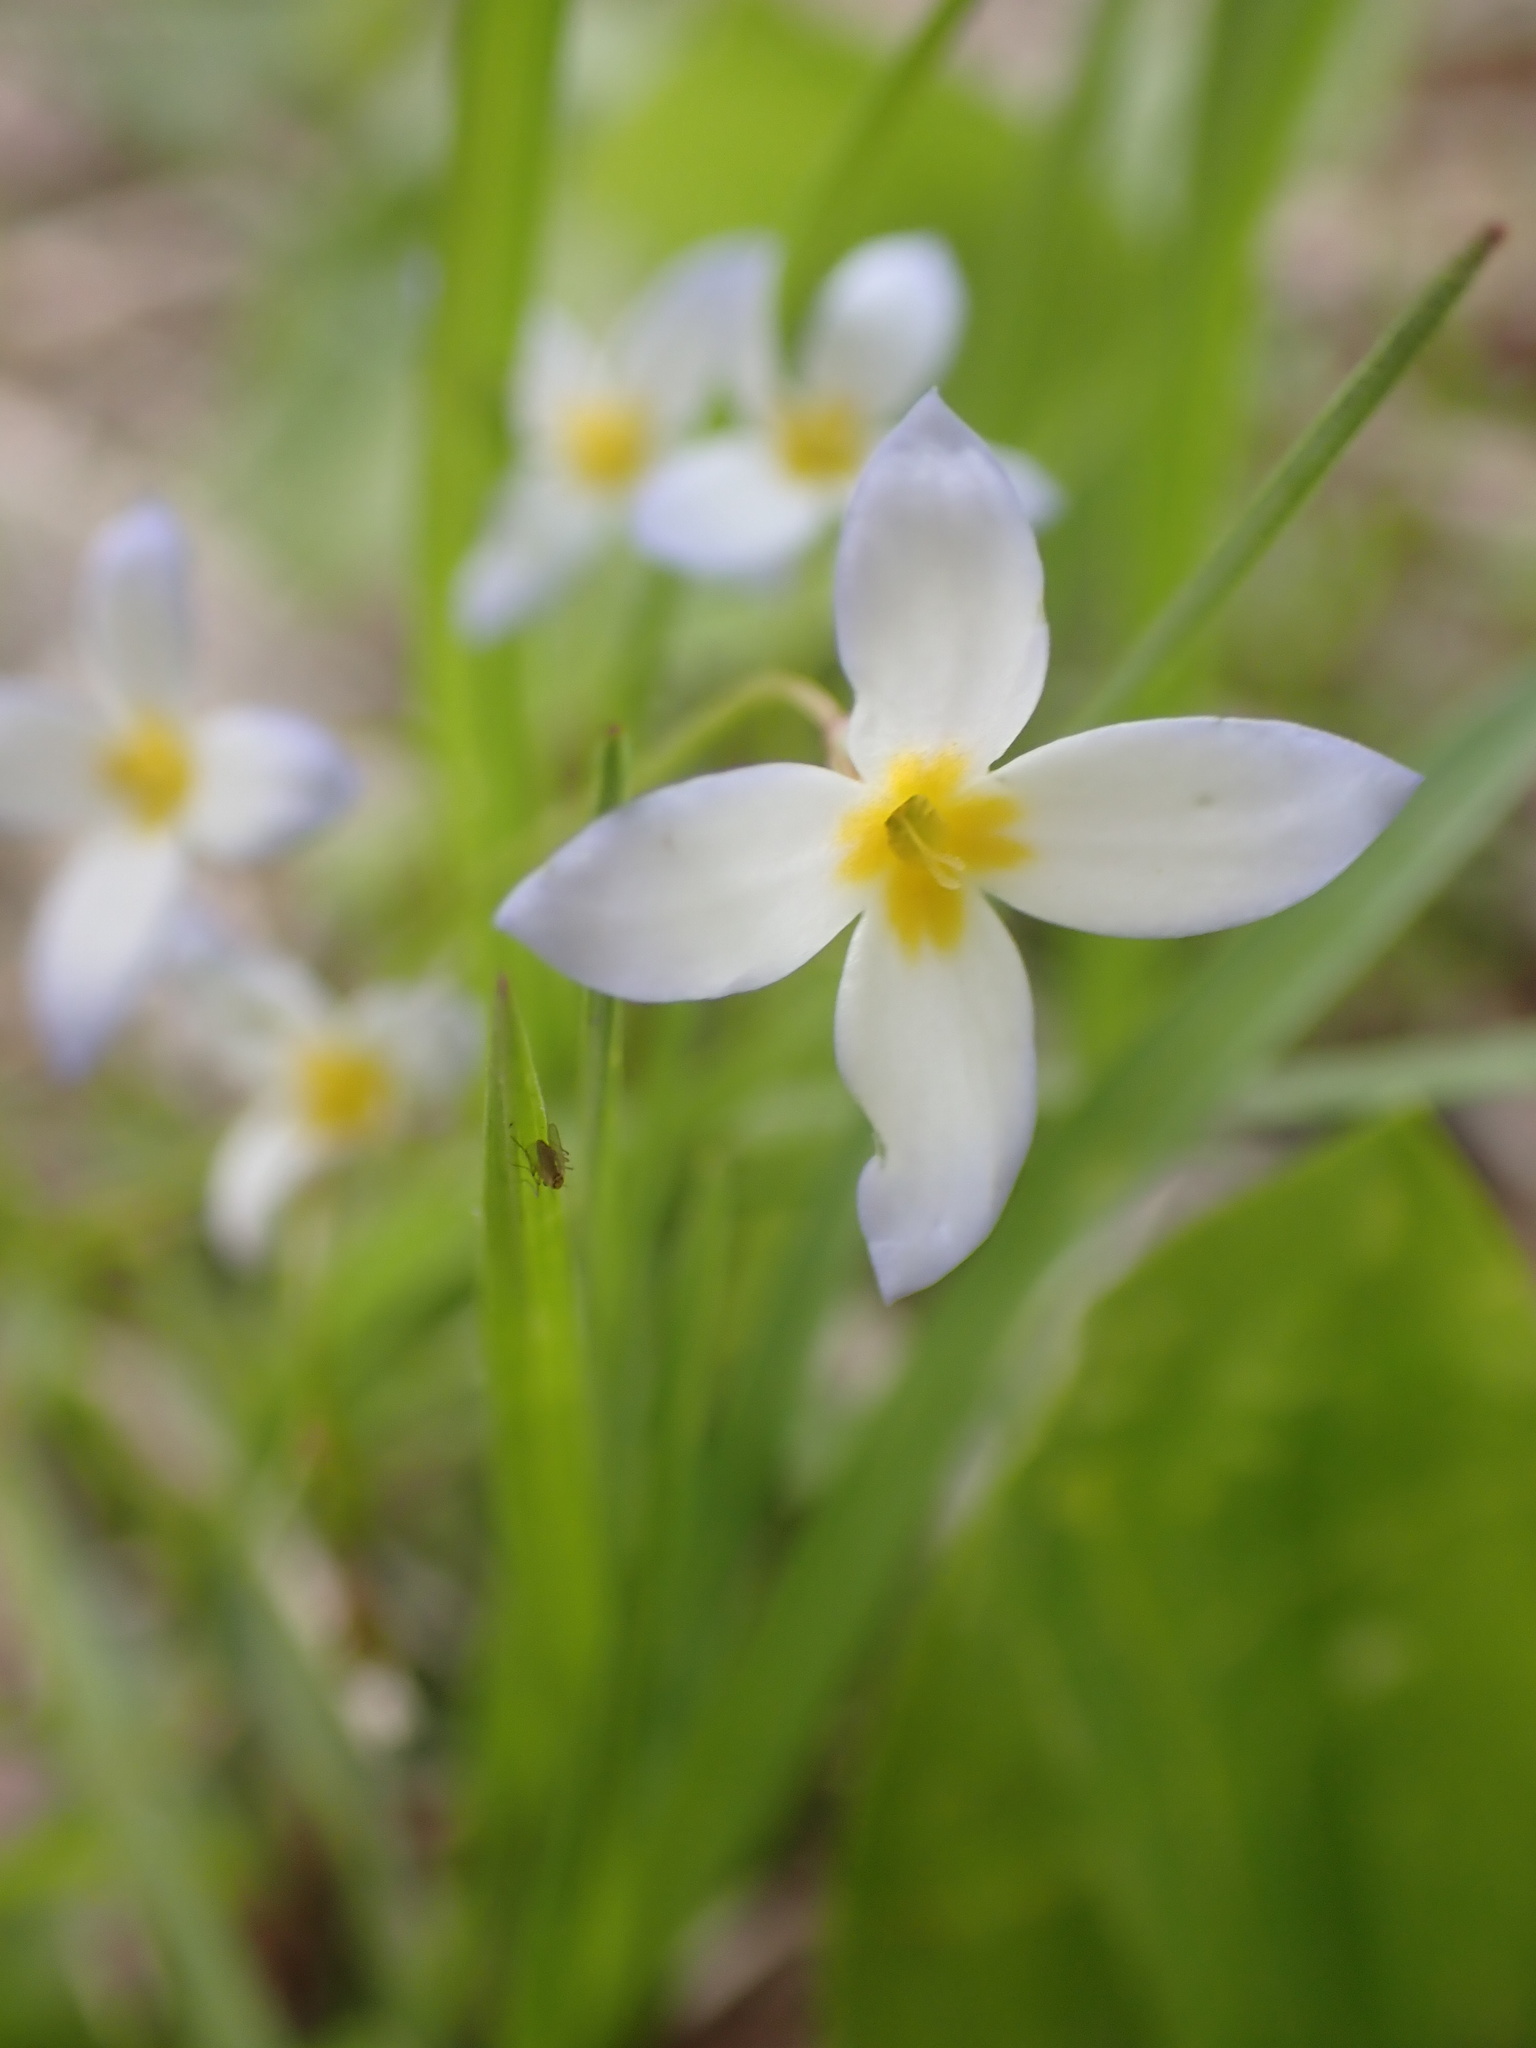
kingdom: Plantae
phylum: Tracheophyta
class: Magnoliopsida
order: Gentianales
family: Rubiaceae
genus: Houstonia
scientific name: Houstonia caerulea
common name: Bluets
